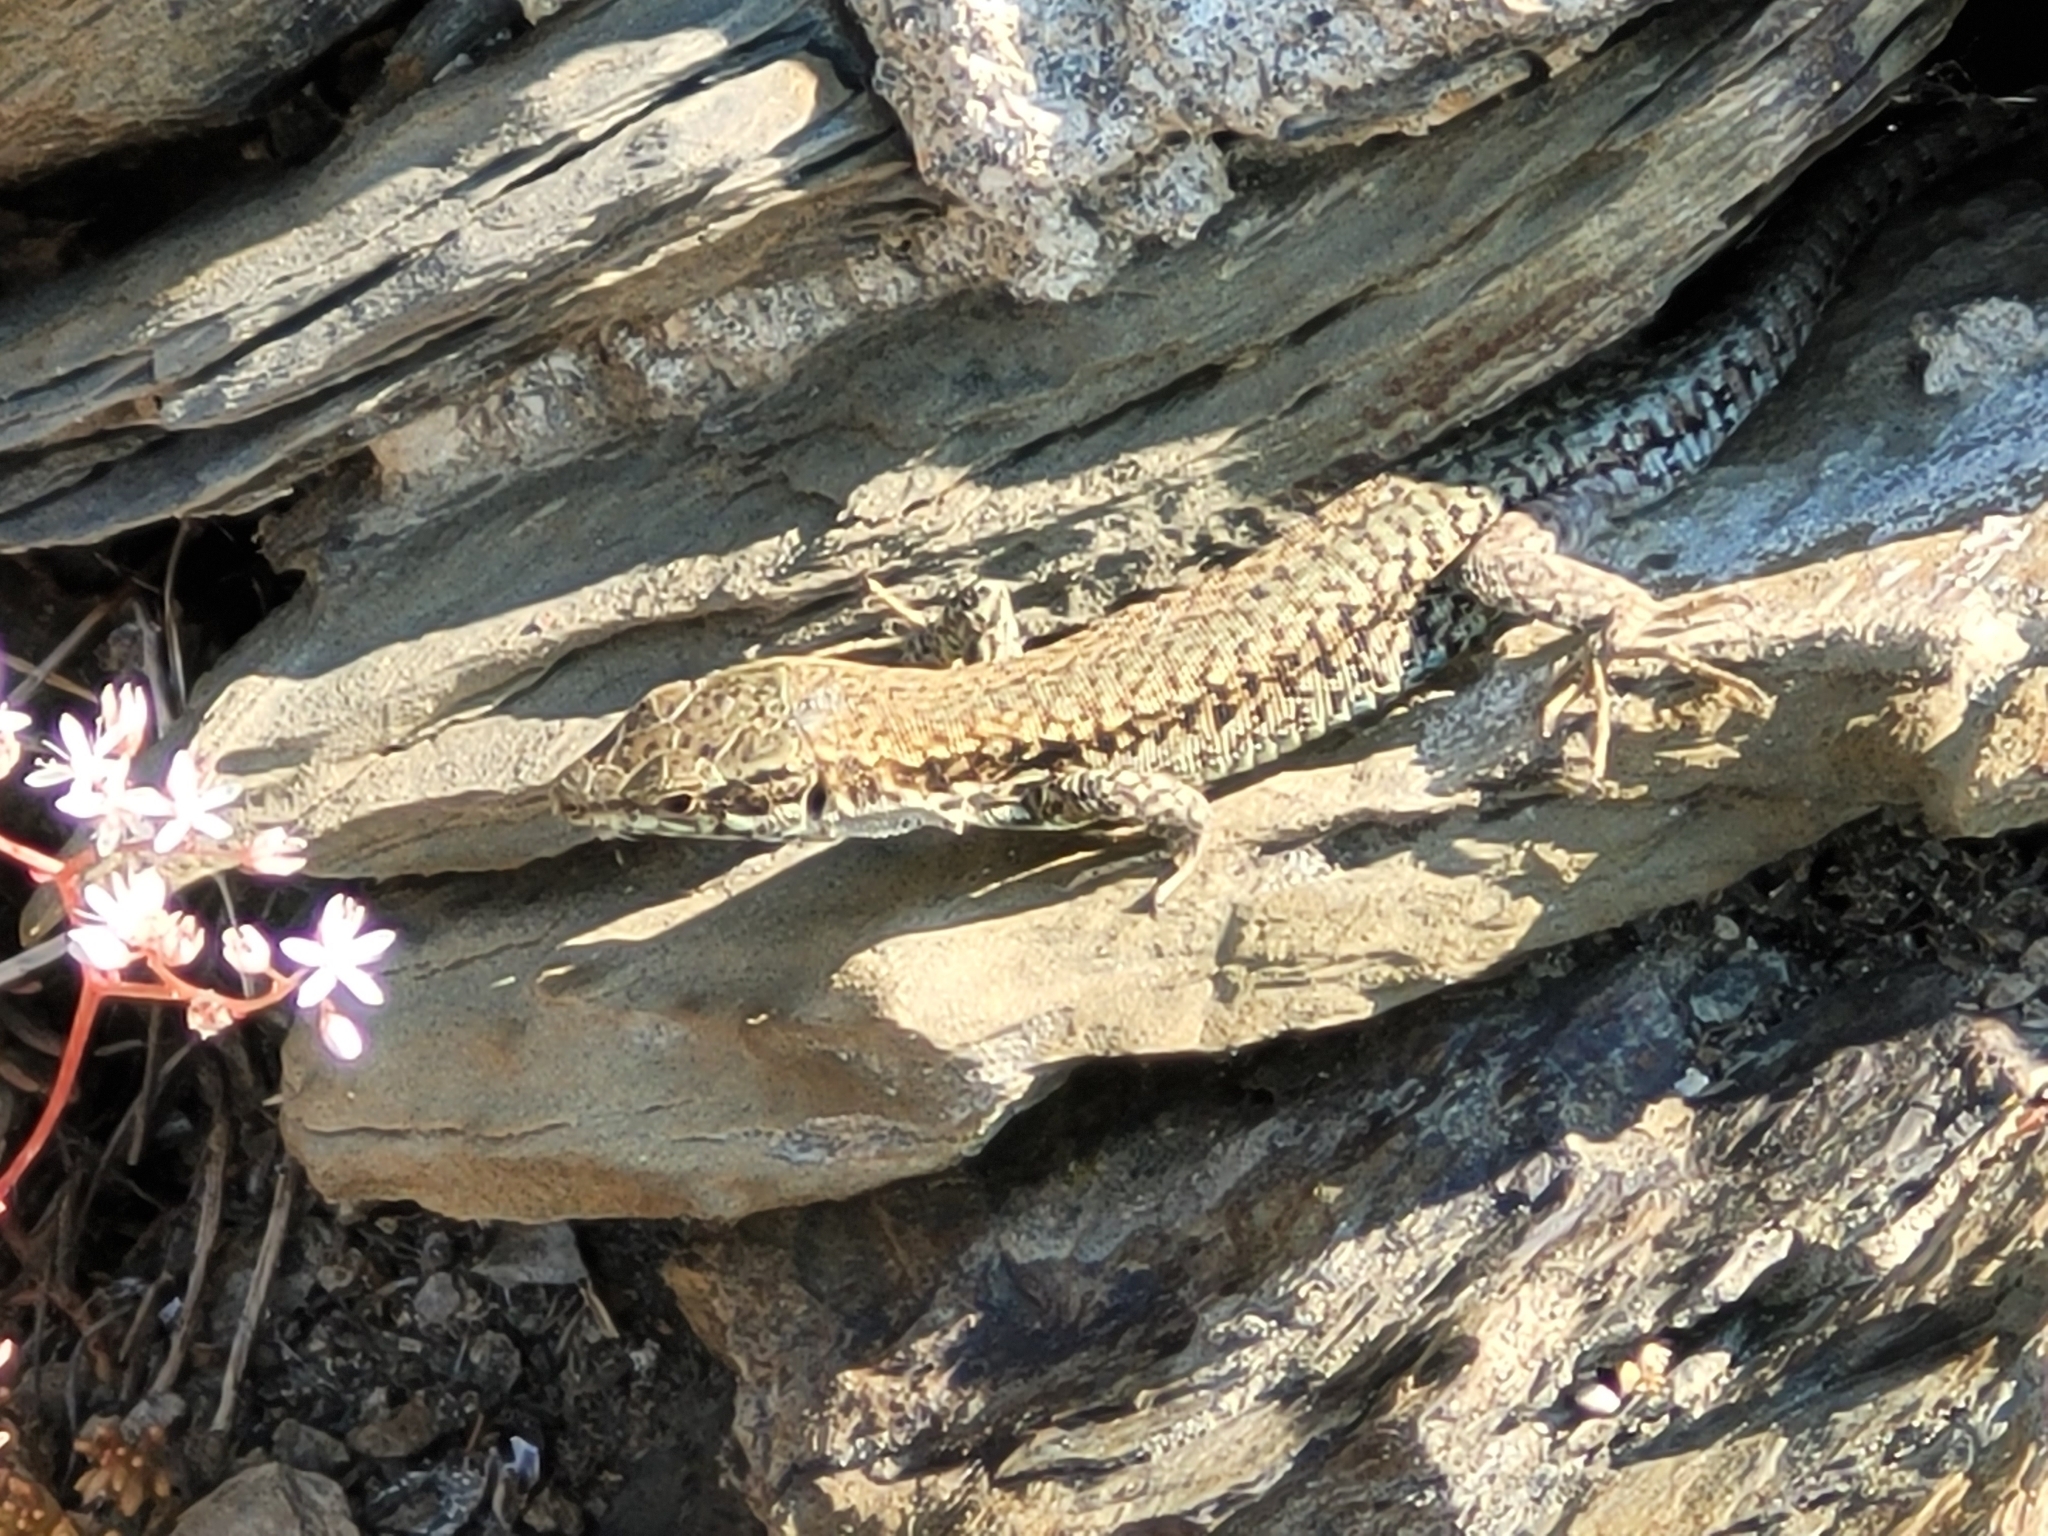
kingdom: Animalia
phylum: Chordata
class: Squamata
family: Lacertidae
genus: Podarcis
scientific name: Podarcis muralis
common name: Common wall lizard
